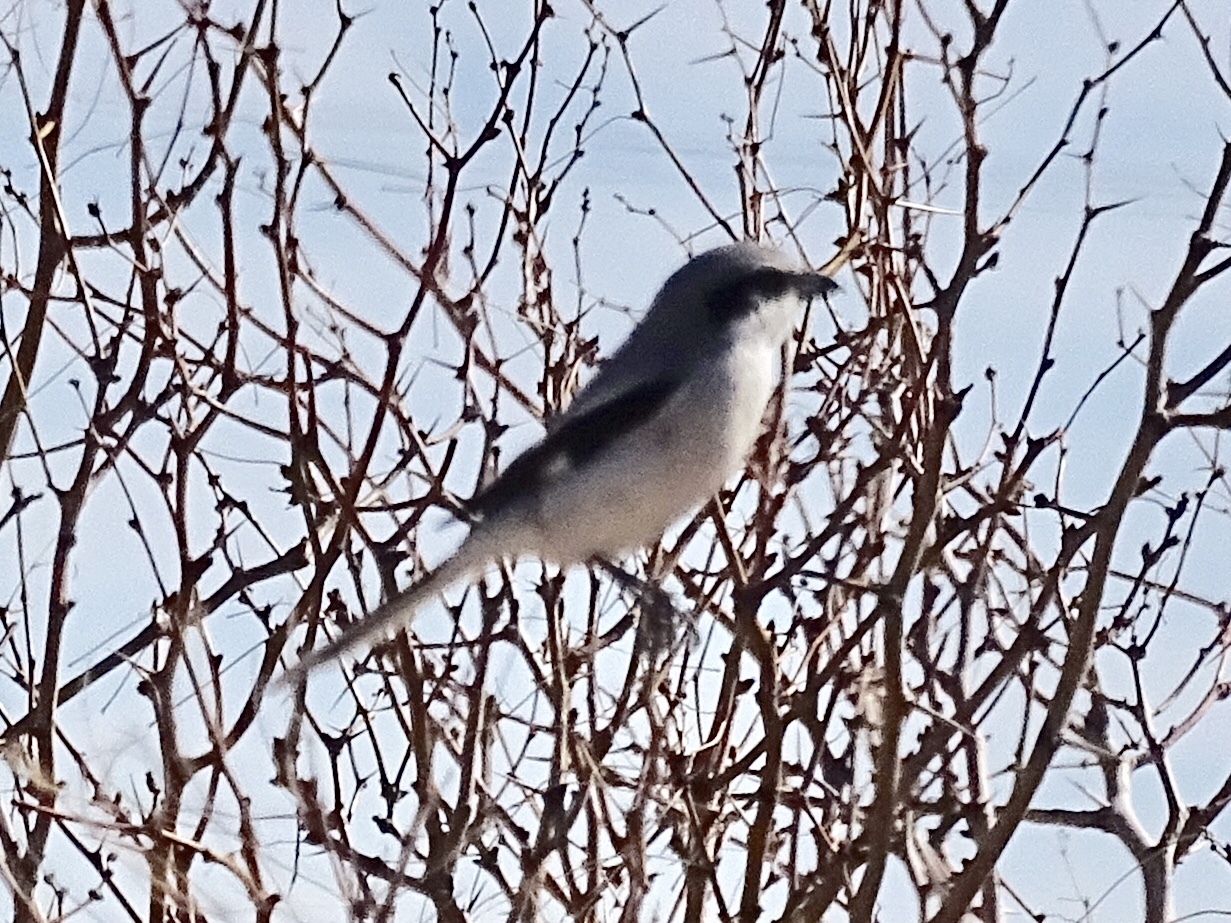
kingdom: Animalia
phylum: Chordata
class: Aves
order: Passeriformes
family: Laniidae
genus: Lanius
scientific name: Lanius ludovicianus
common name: Loggerhead shrike
